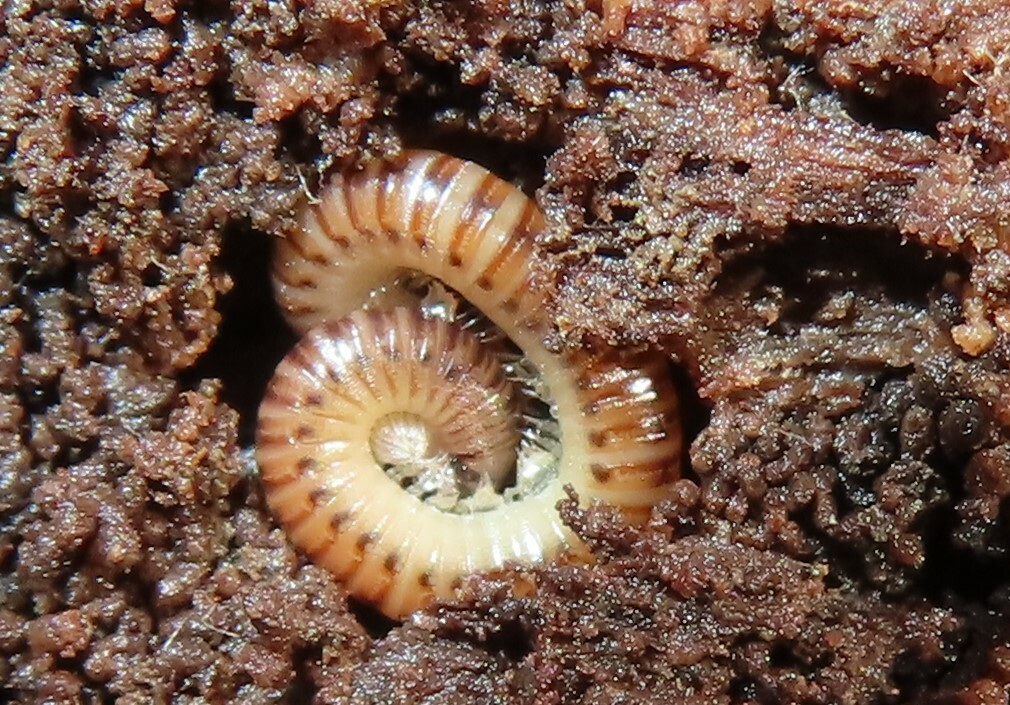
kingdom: Animalia
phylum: Arthropoda
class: Diplopoda
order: Julida
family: Julidae
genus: Cylindroiulus
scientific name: Cylindroiulus punctatus
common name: Blunt-tailed millipede
